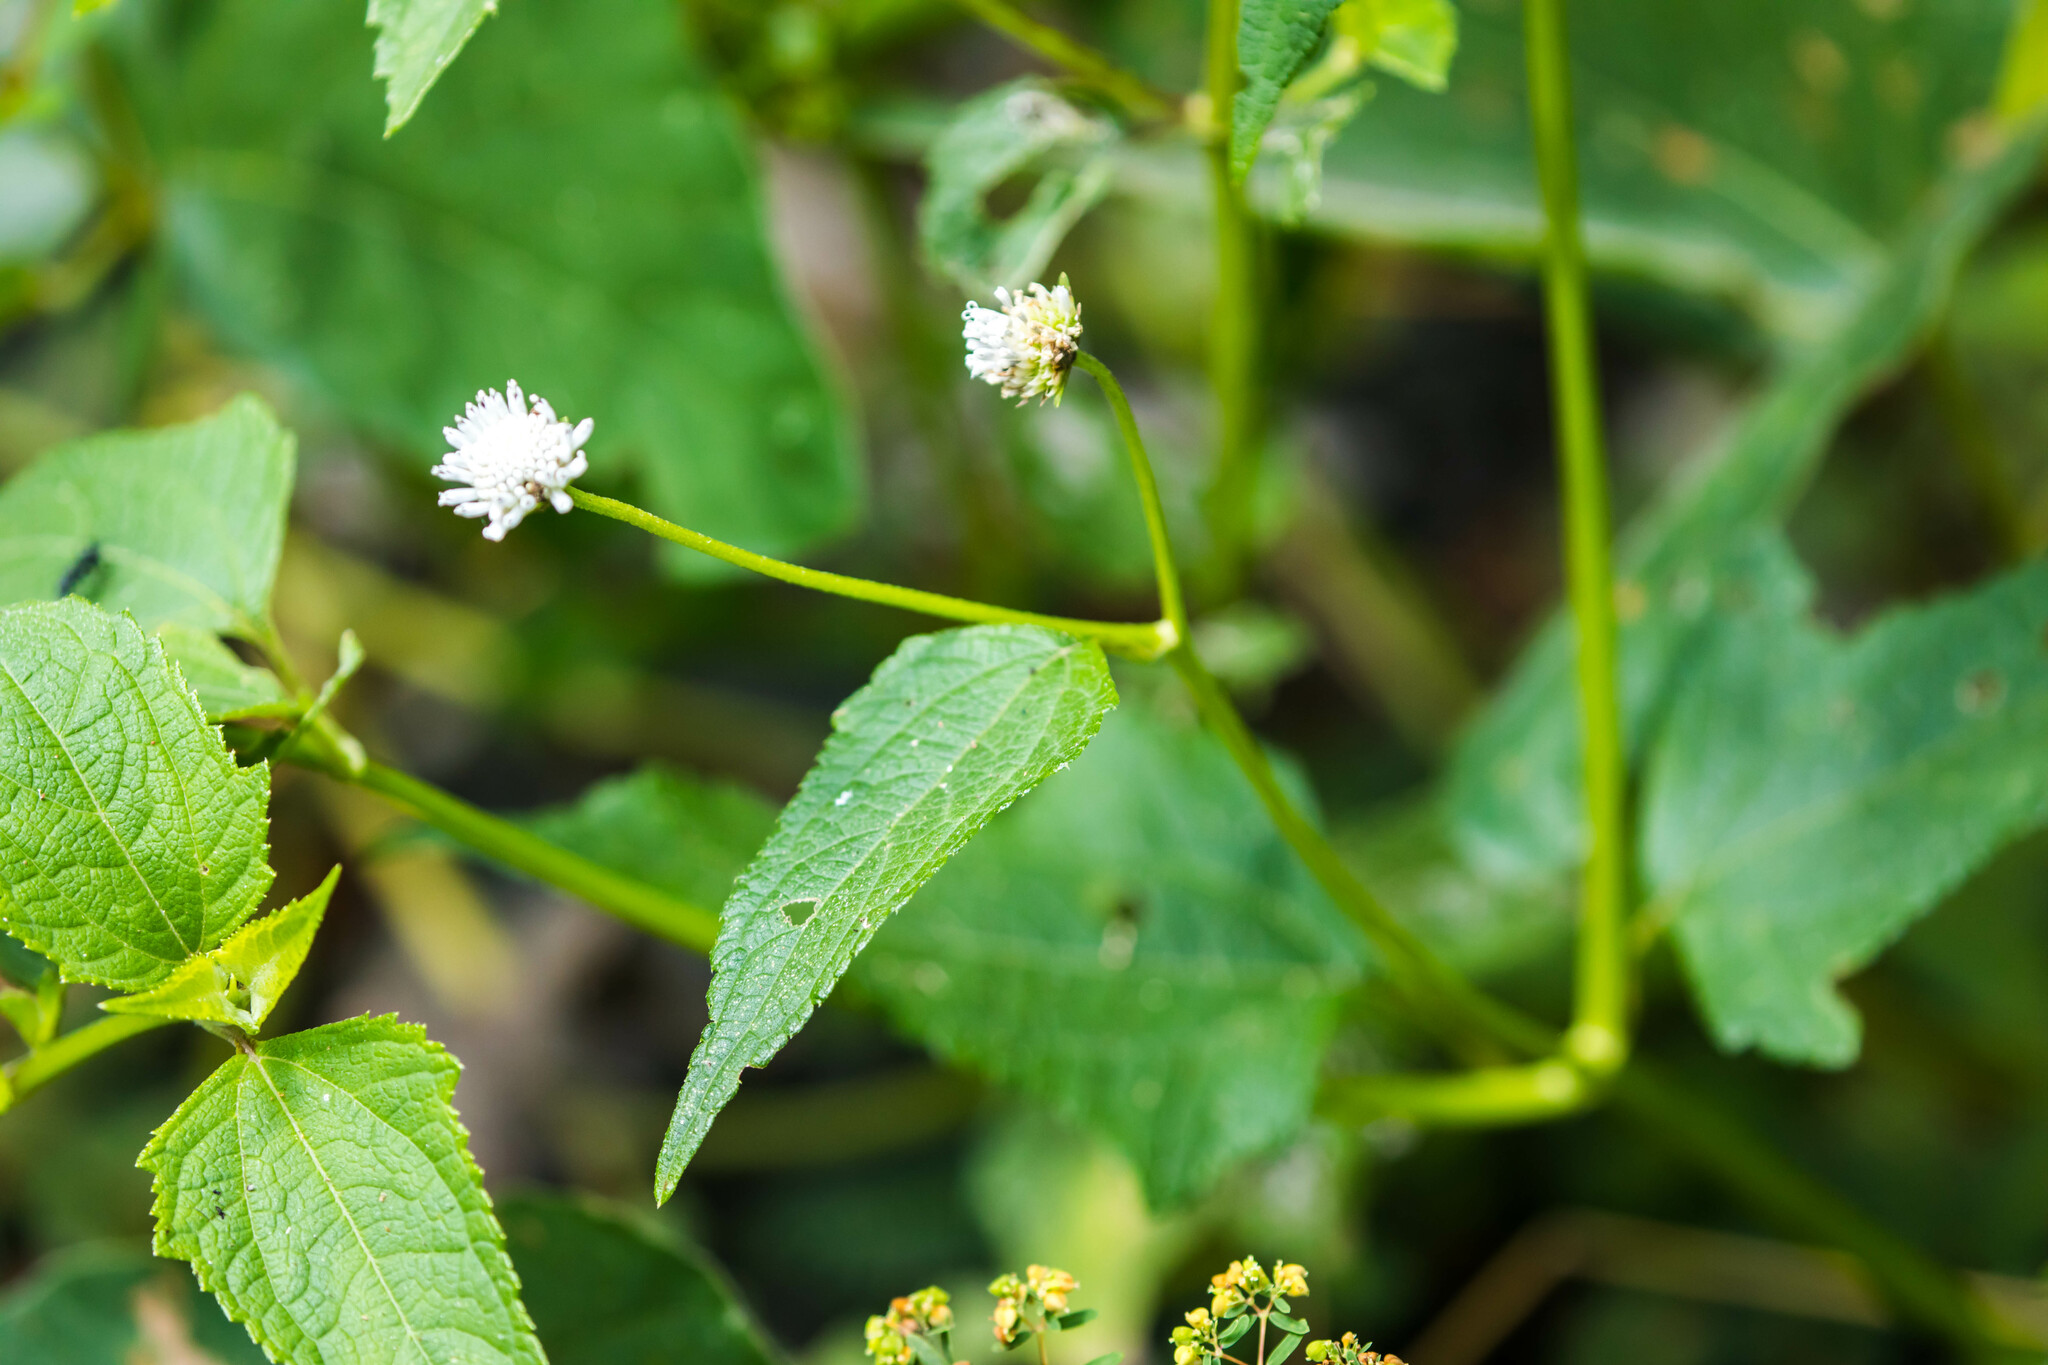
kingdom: Plantae
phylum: Tracheophyta
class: Magnoliopsida
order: Asterales
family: Asteraceae
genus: Melanthera
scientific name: Melanthera nivea
